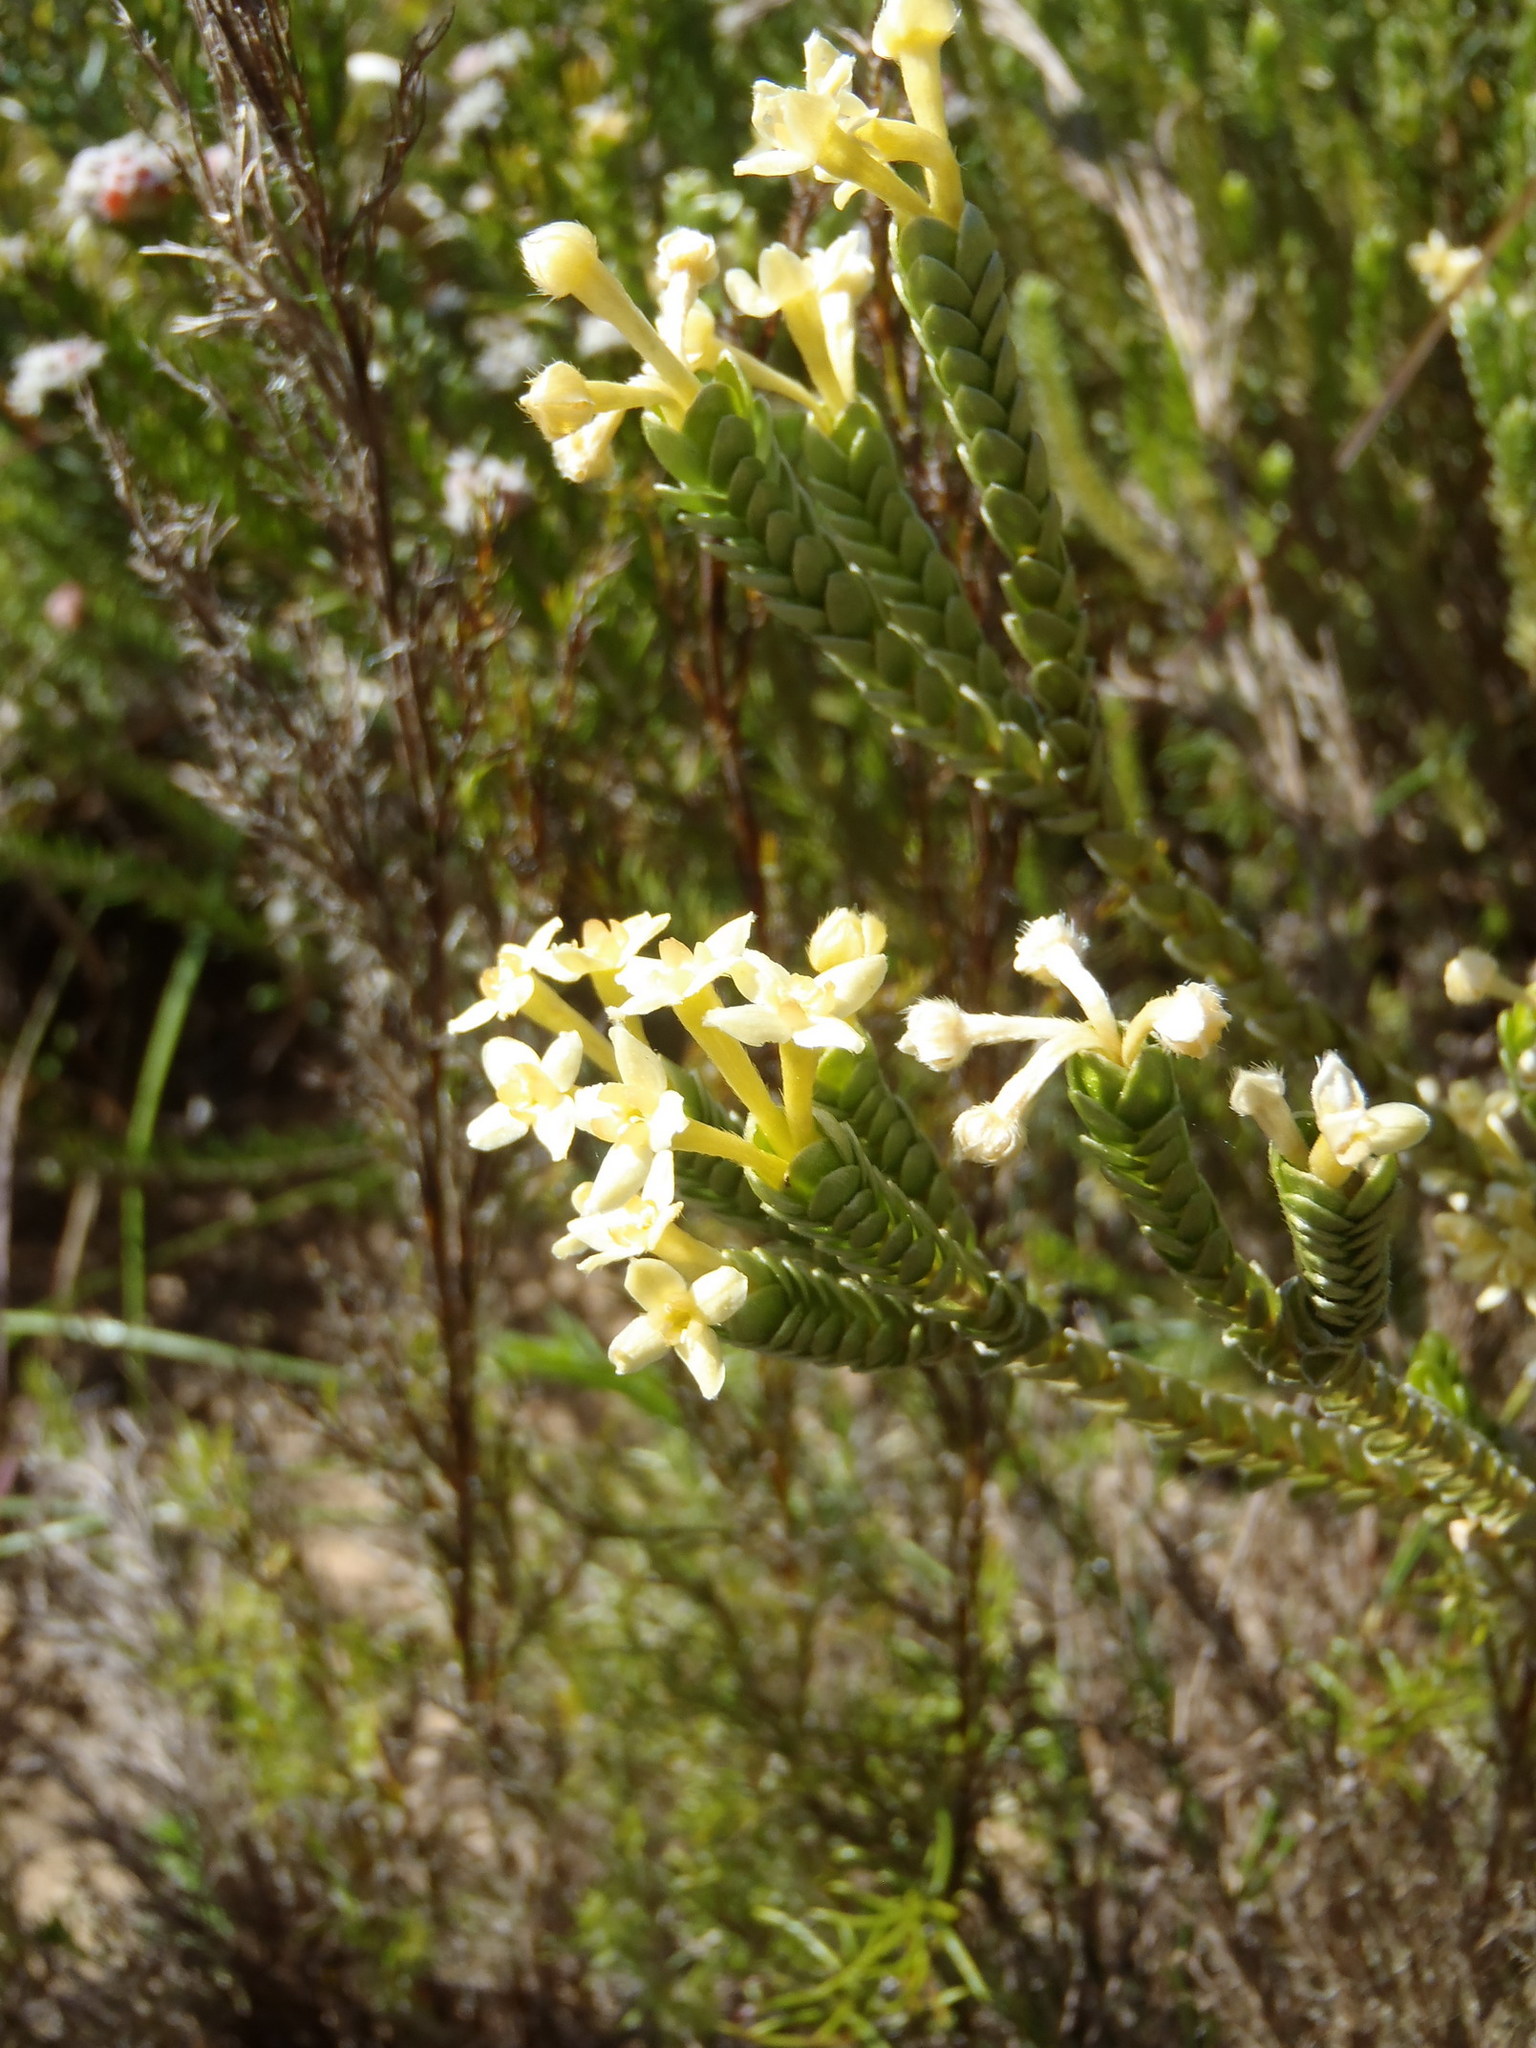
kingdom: Plantae
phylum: Tracheophyta
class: Magnoliopsida
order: Malvales
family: Thymelaeaceae
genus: Gnidia
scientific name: Gnidia chrysophylla
